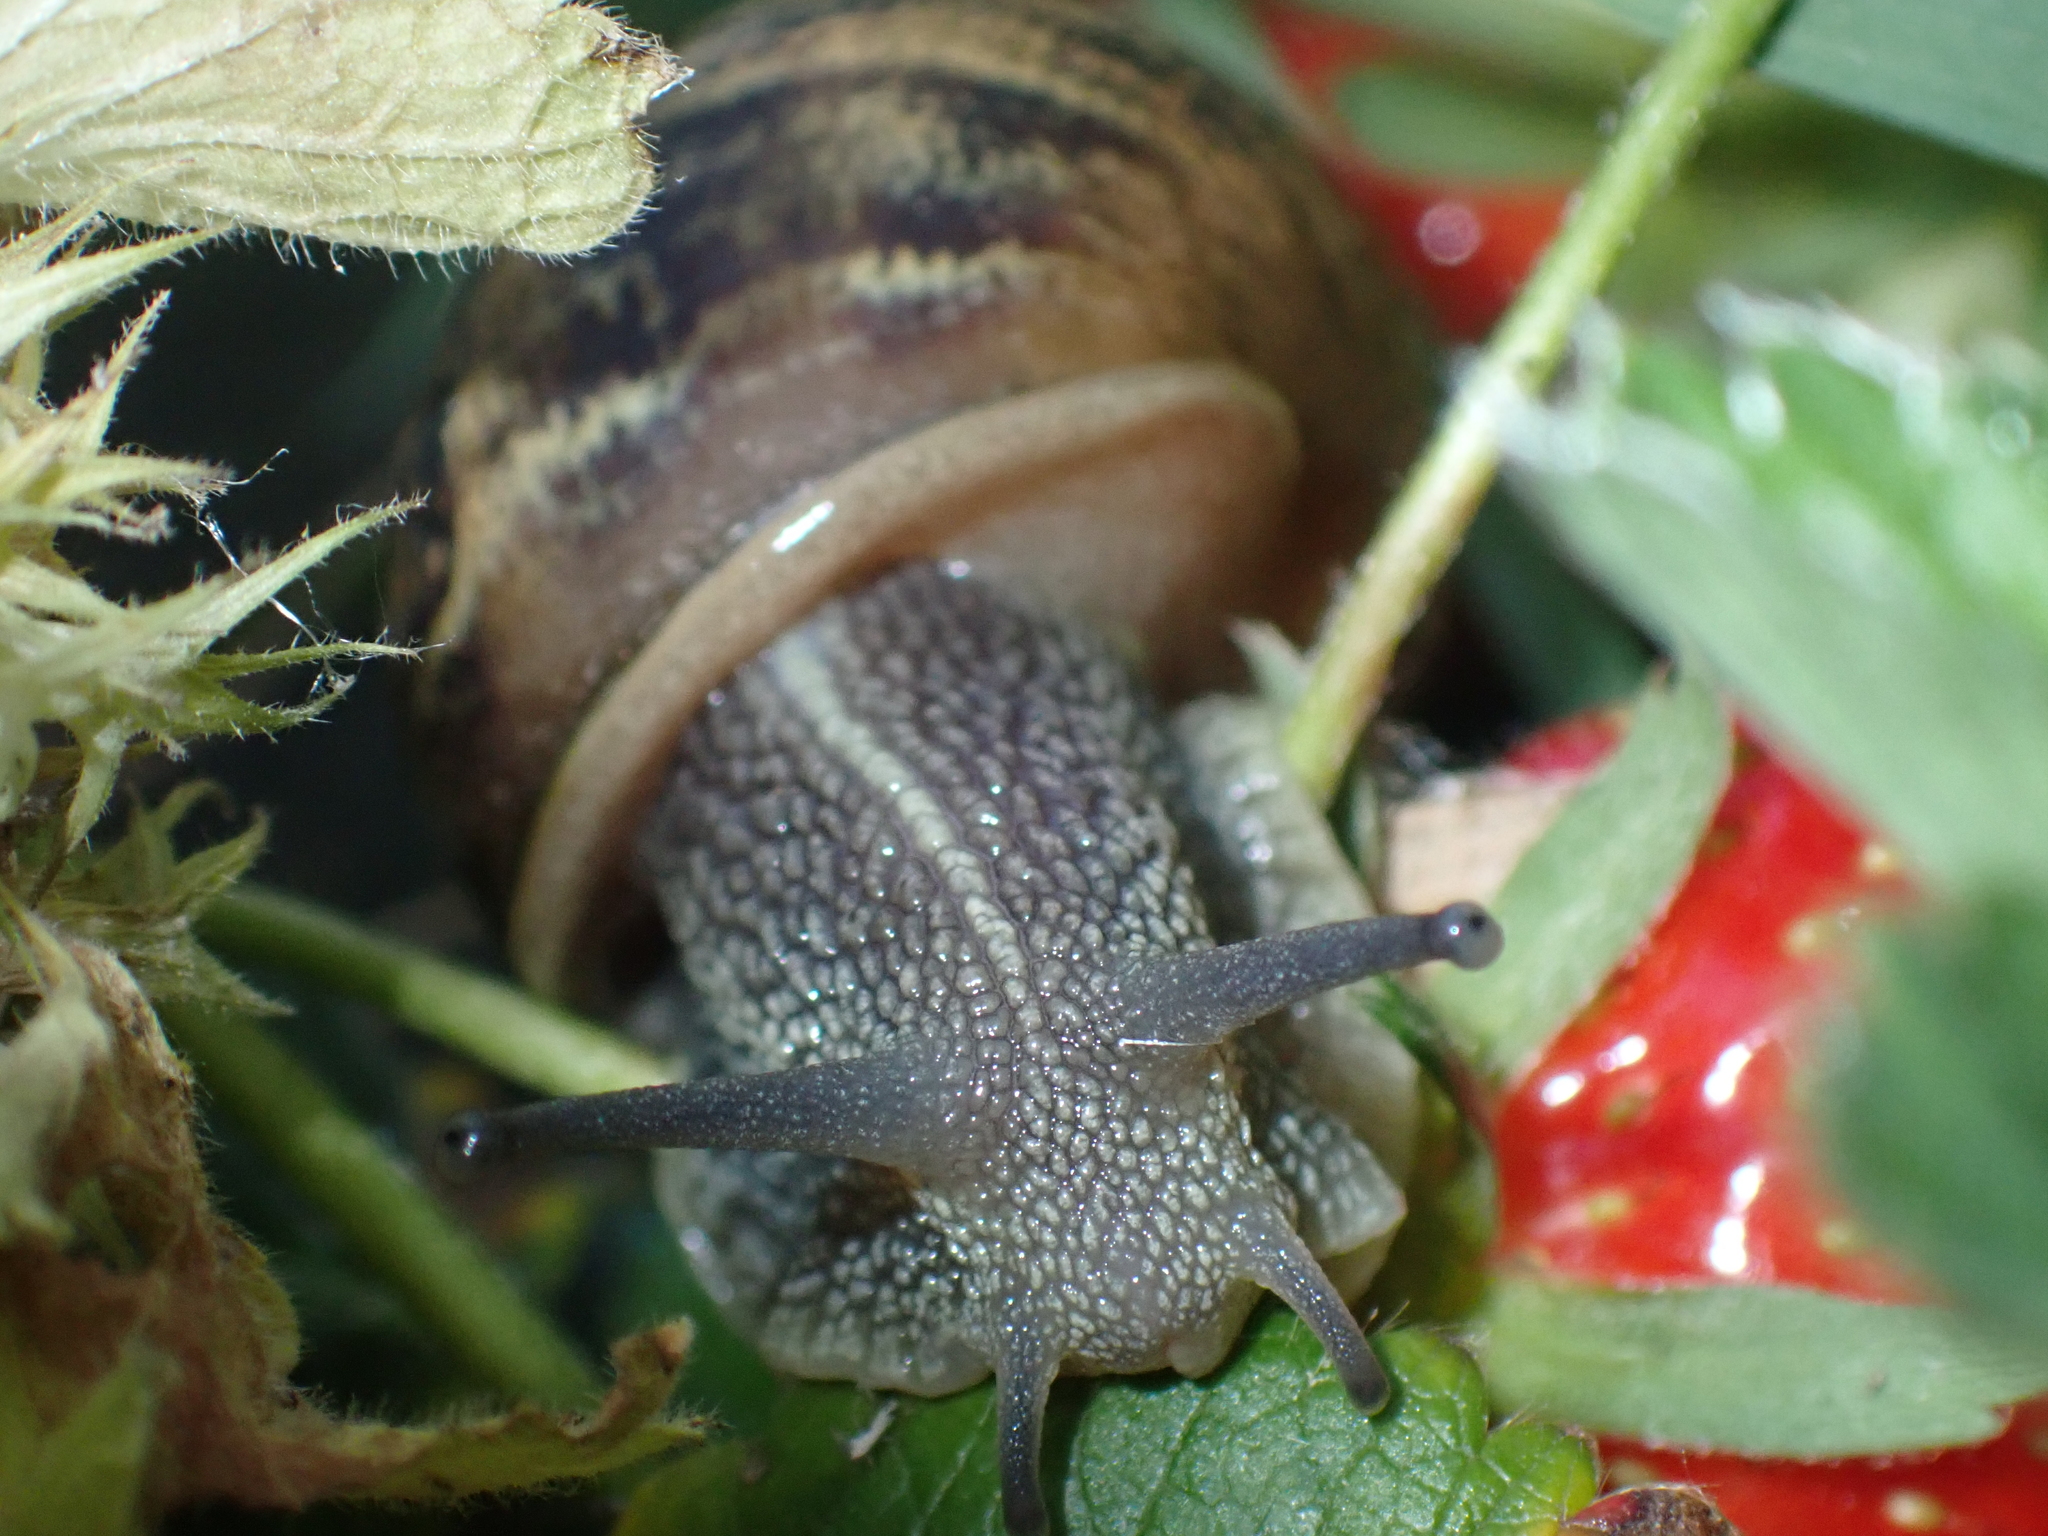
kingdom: Animalia
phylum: Mollusca
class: Gastropoda
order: Stylommatophora
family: Helicidae
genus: Cornu
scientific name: Cornu aspersum
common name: Brown garden snail
